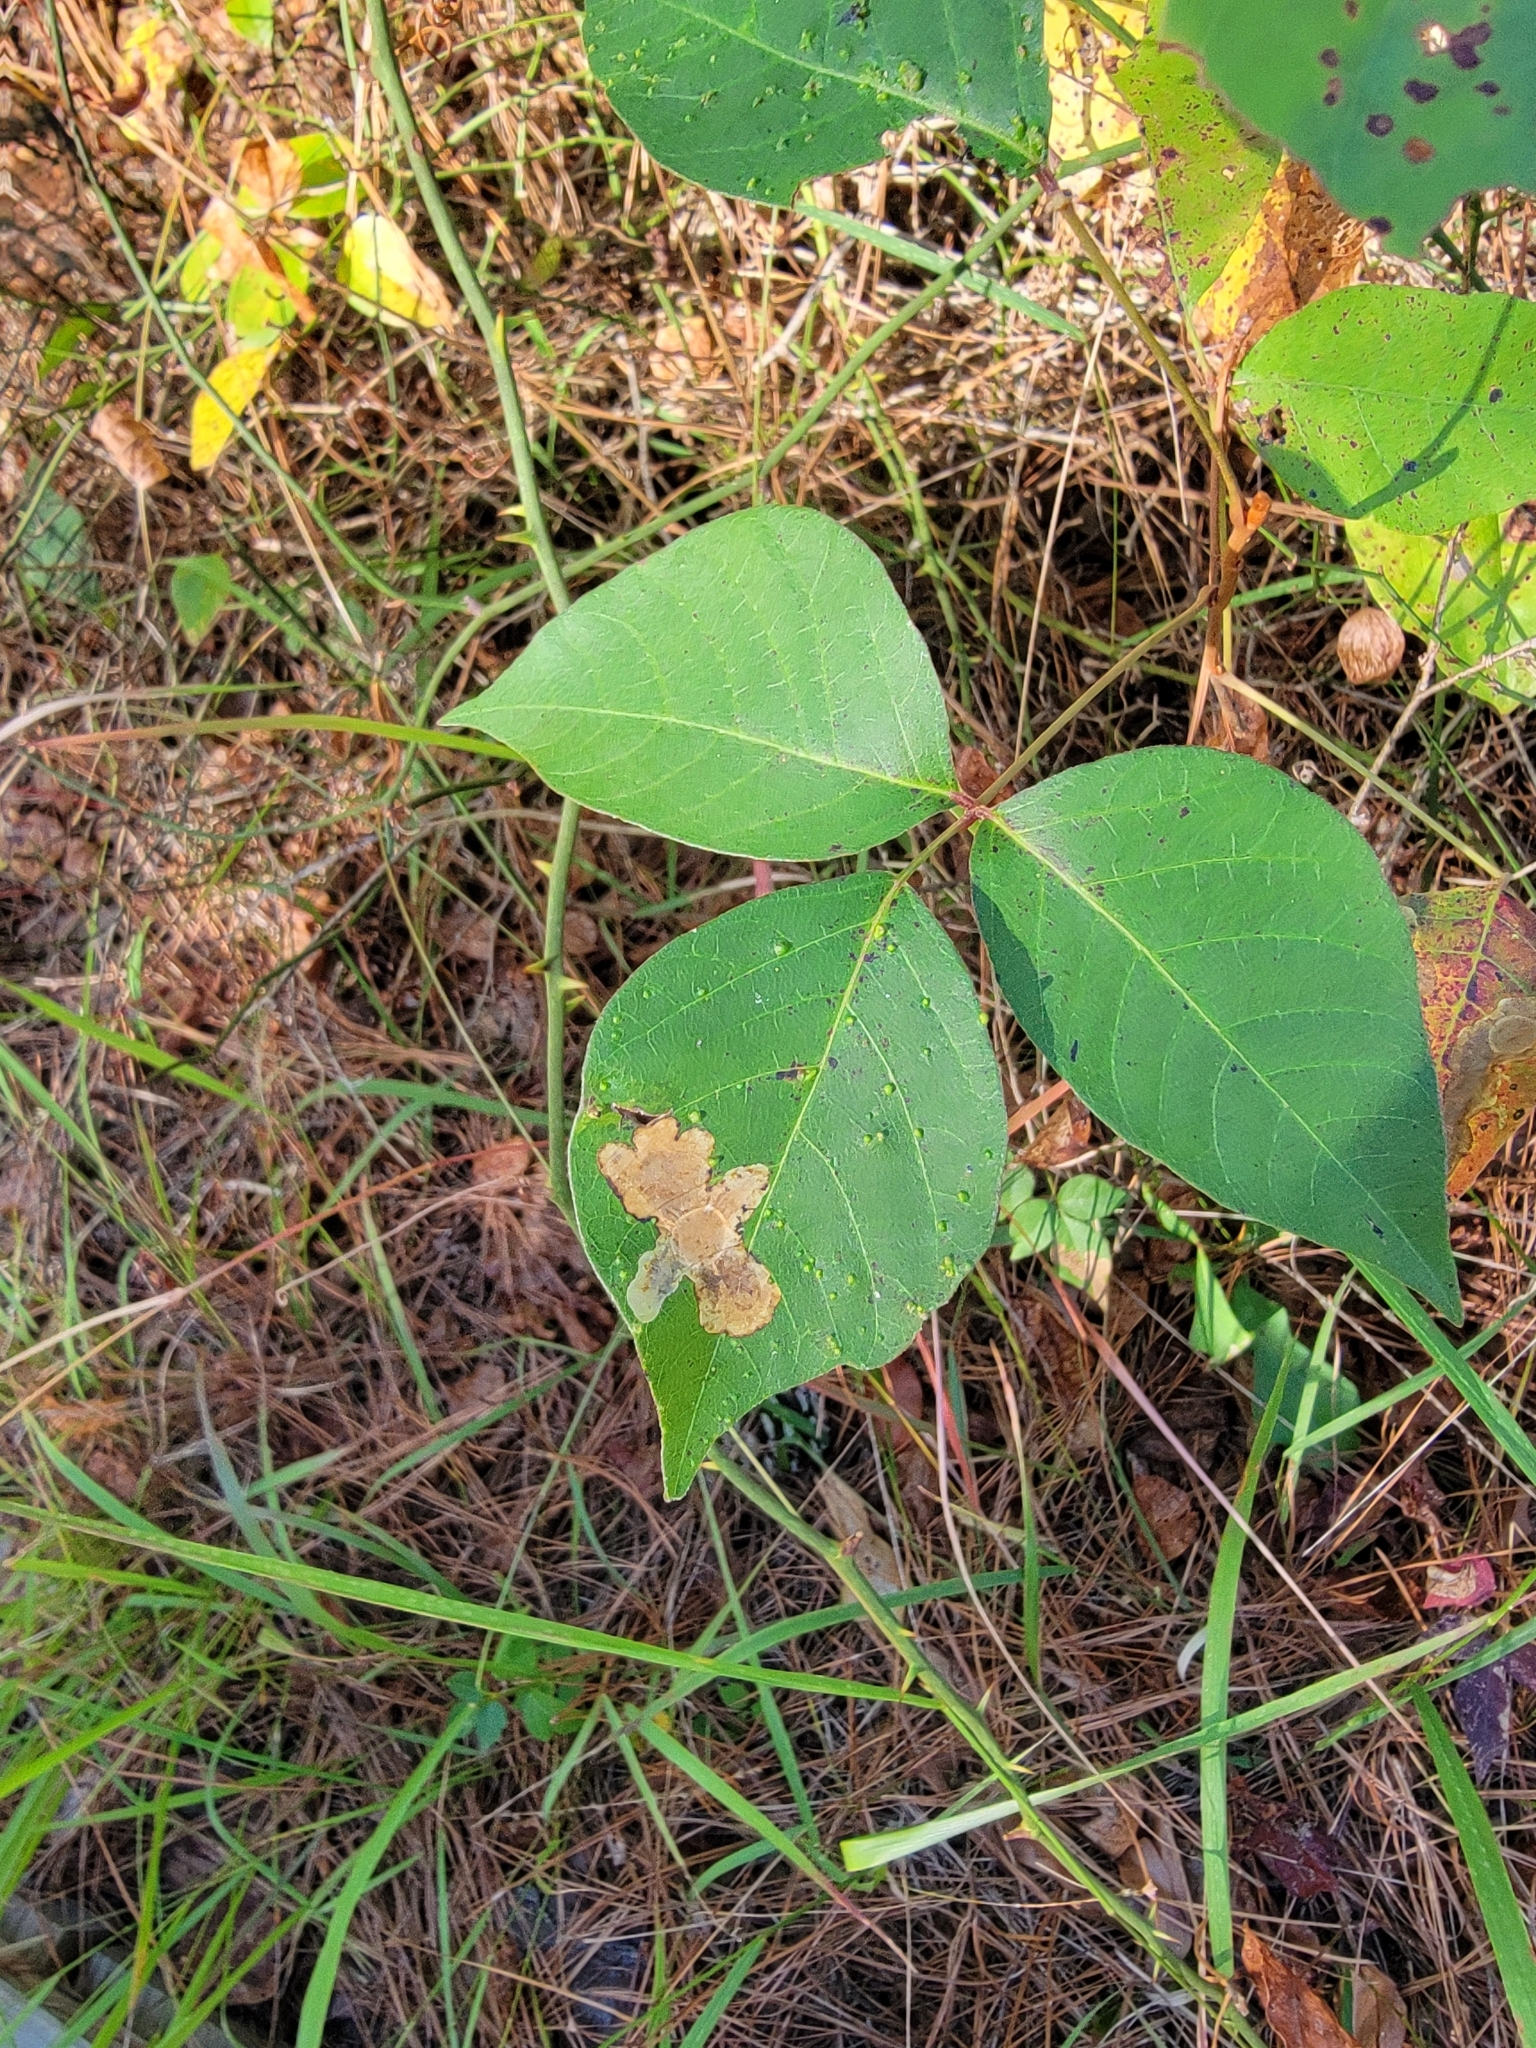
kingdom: Animalia
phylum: Arthropoda
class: Insecta
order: Lepidoptera
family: Gracillariidae
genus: Cameraria
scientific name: Cameraria guttifinitella
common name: Poison ivy leaf-miner moth
